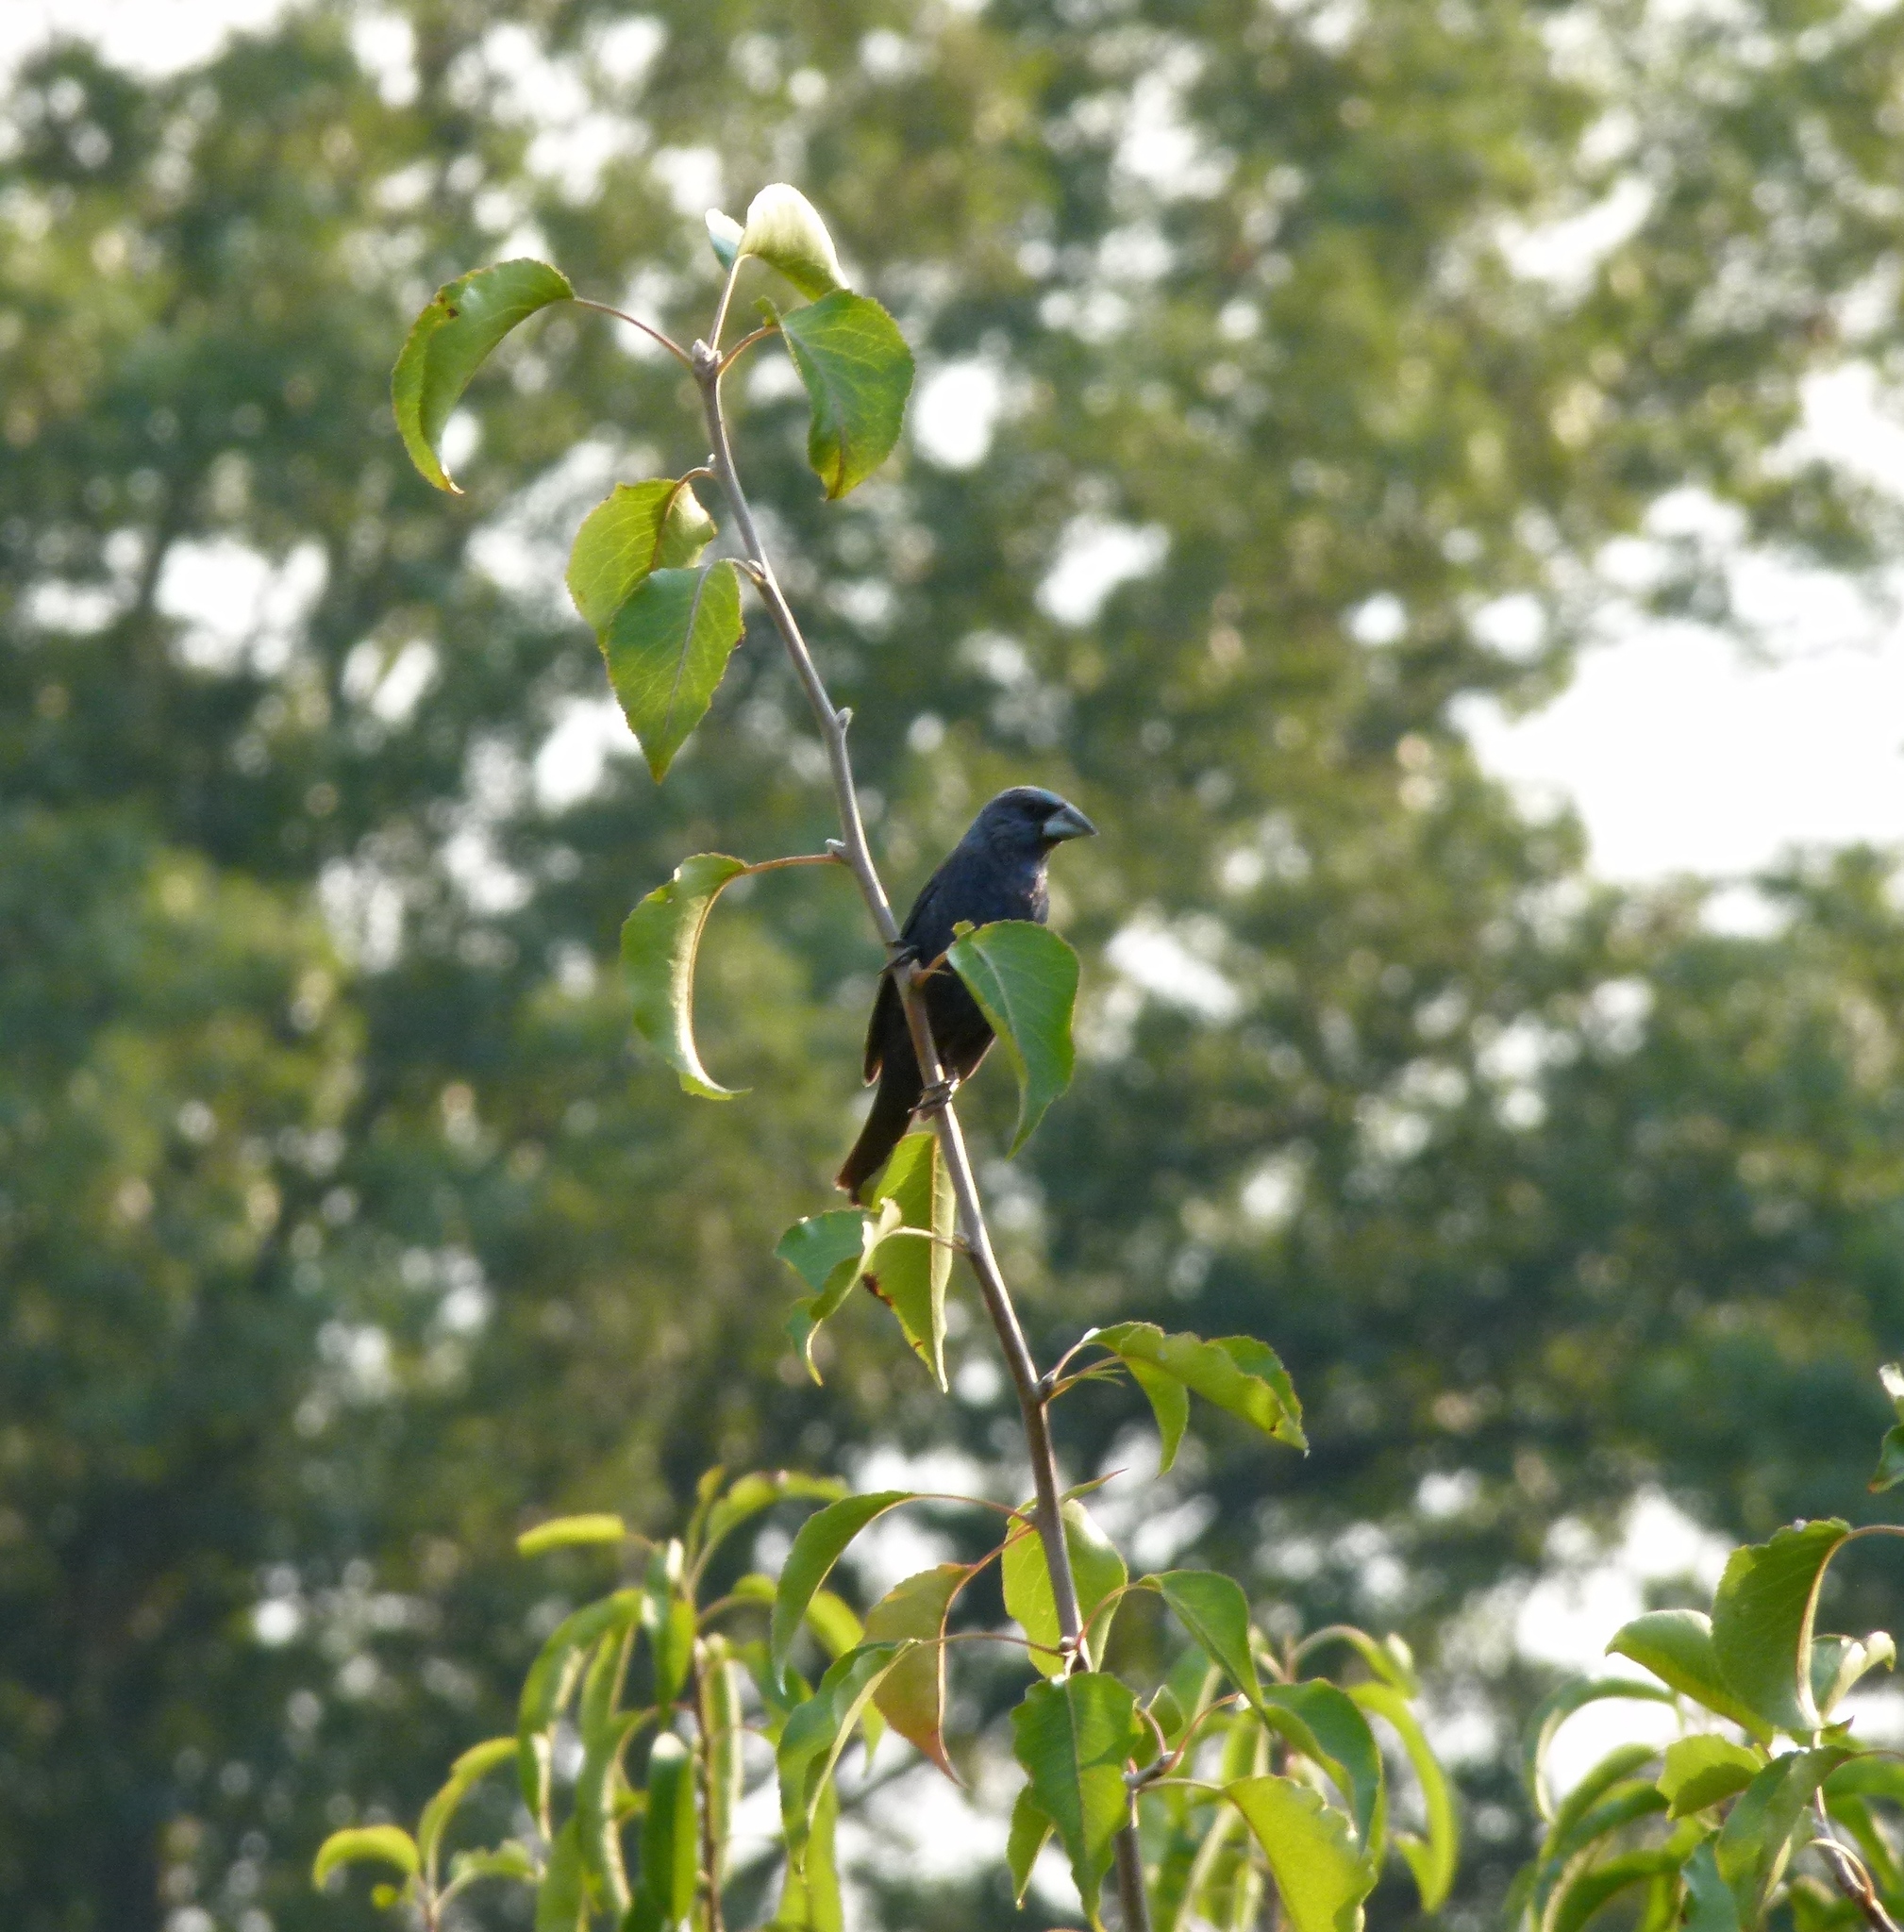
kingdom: Animalia
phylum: Chordata
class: Aves
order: Passeriformes
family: Cardinalidae
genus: Passerina
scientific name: Passerina caerulea
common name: Blue grosbeak
